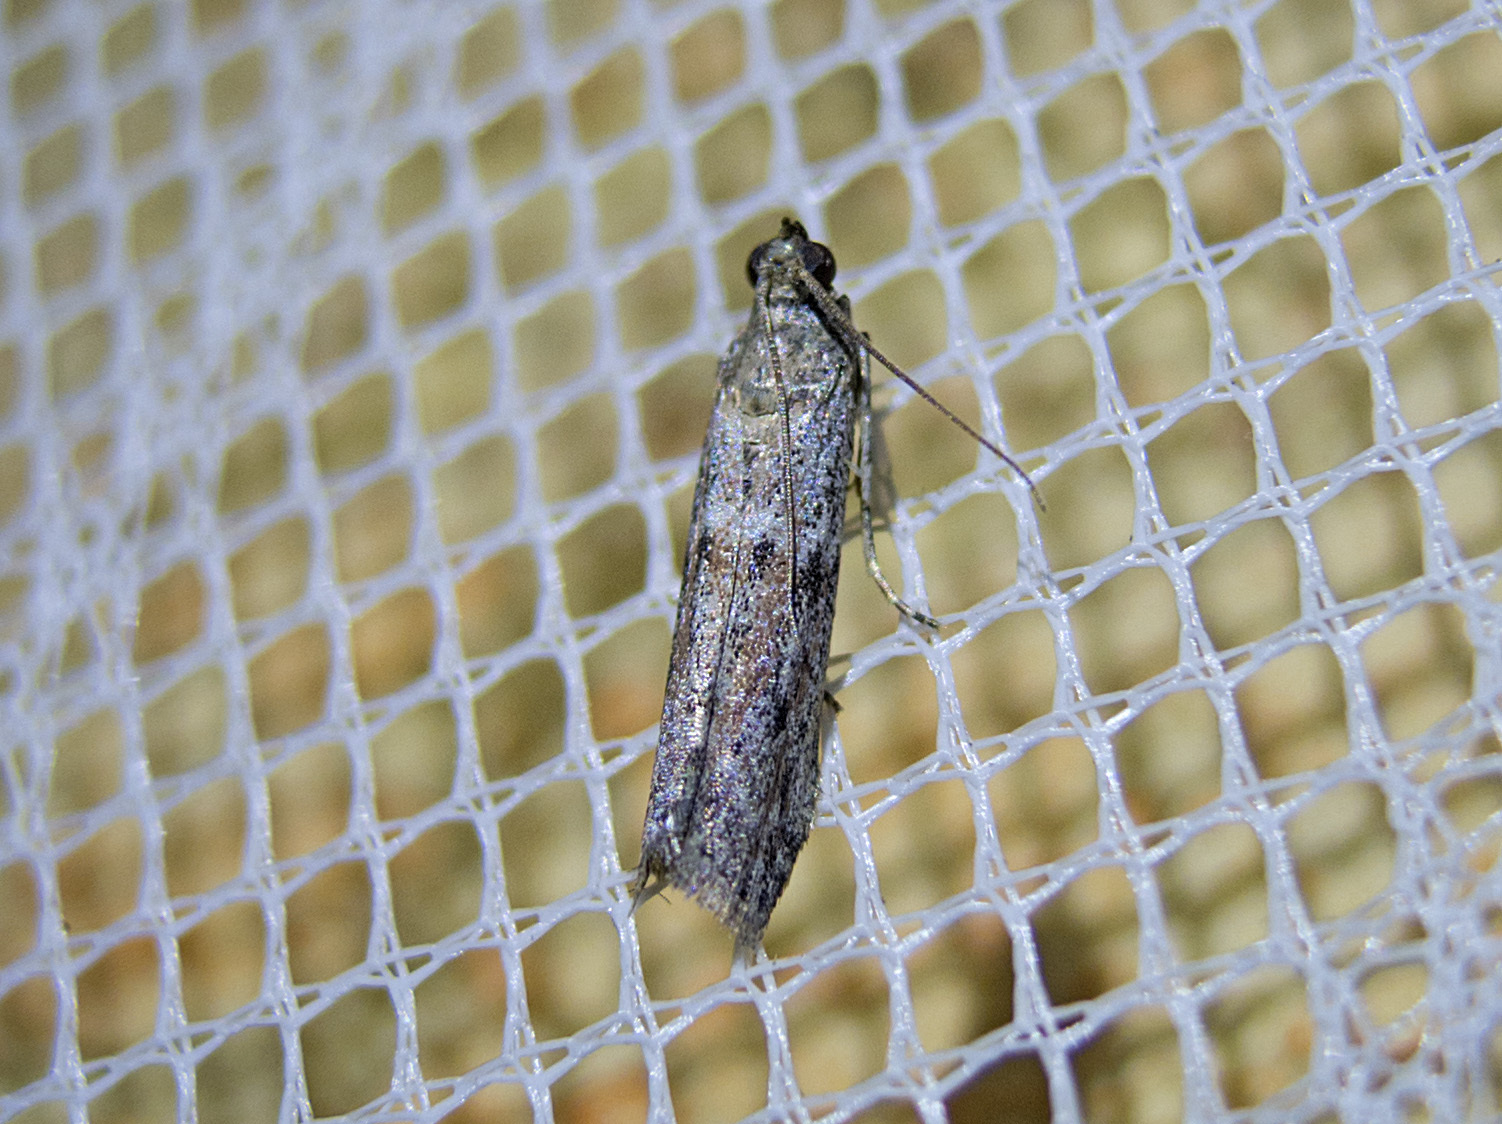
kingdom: Animalia
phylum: Arthropoda
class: Insecta
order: Lepidoptera
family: Pyralidae
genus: Cadra
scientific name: Cadra
